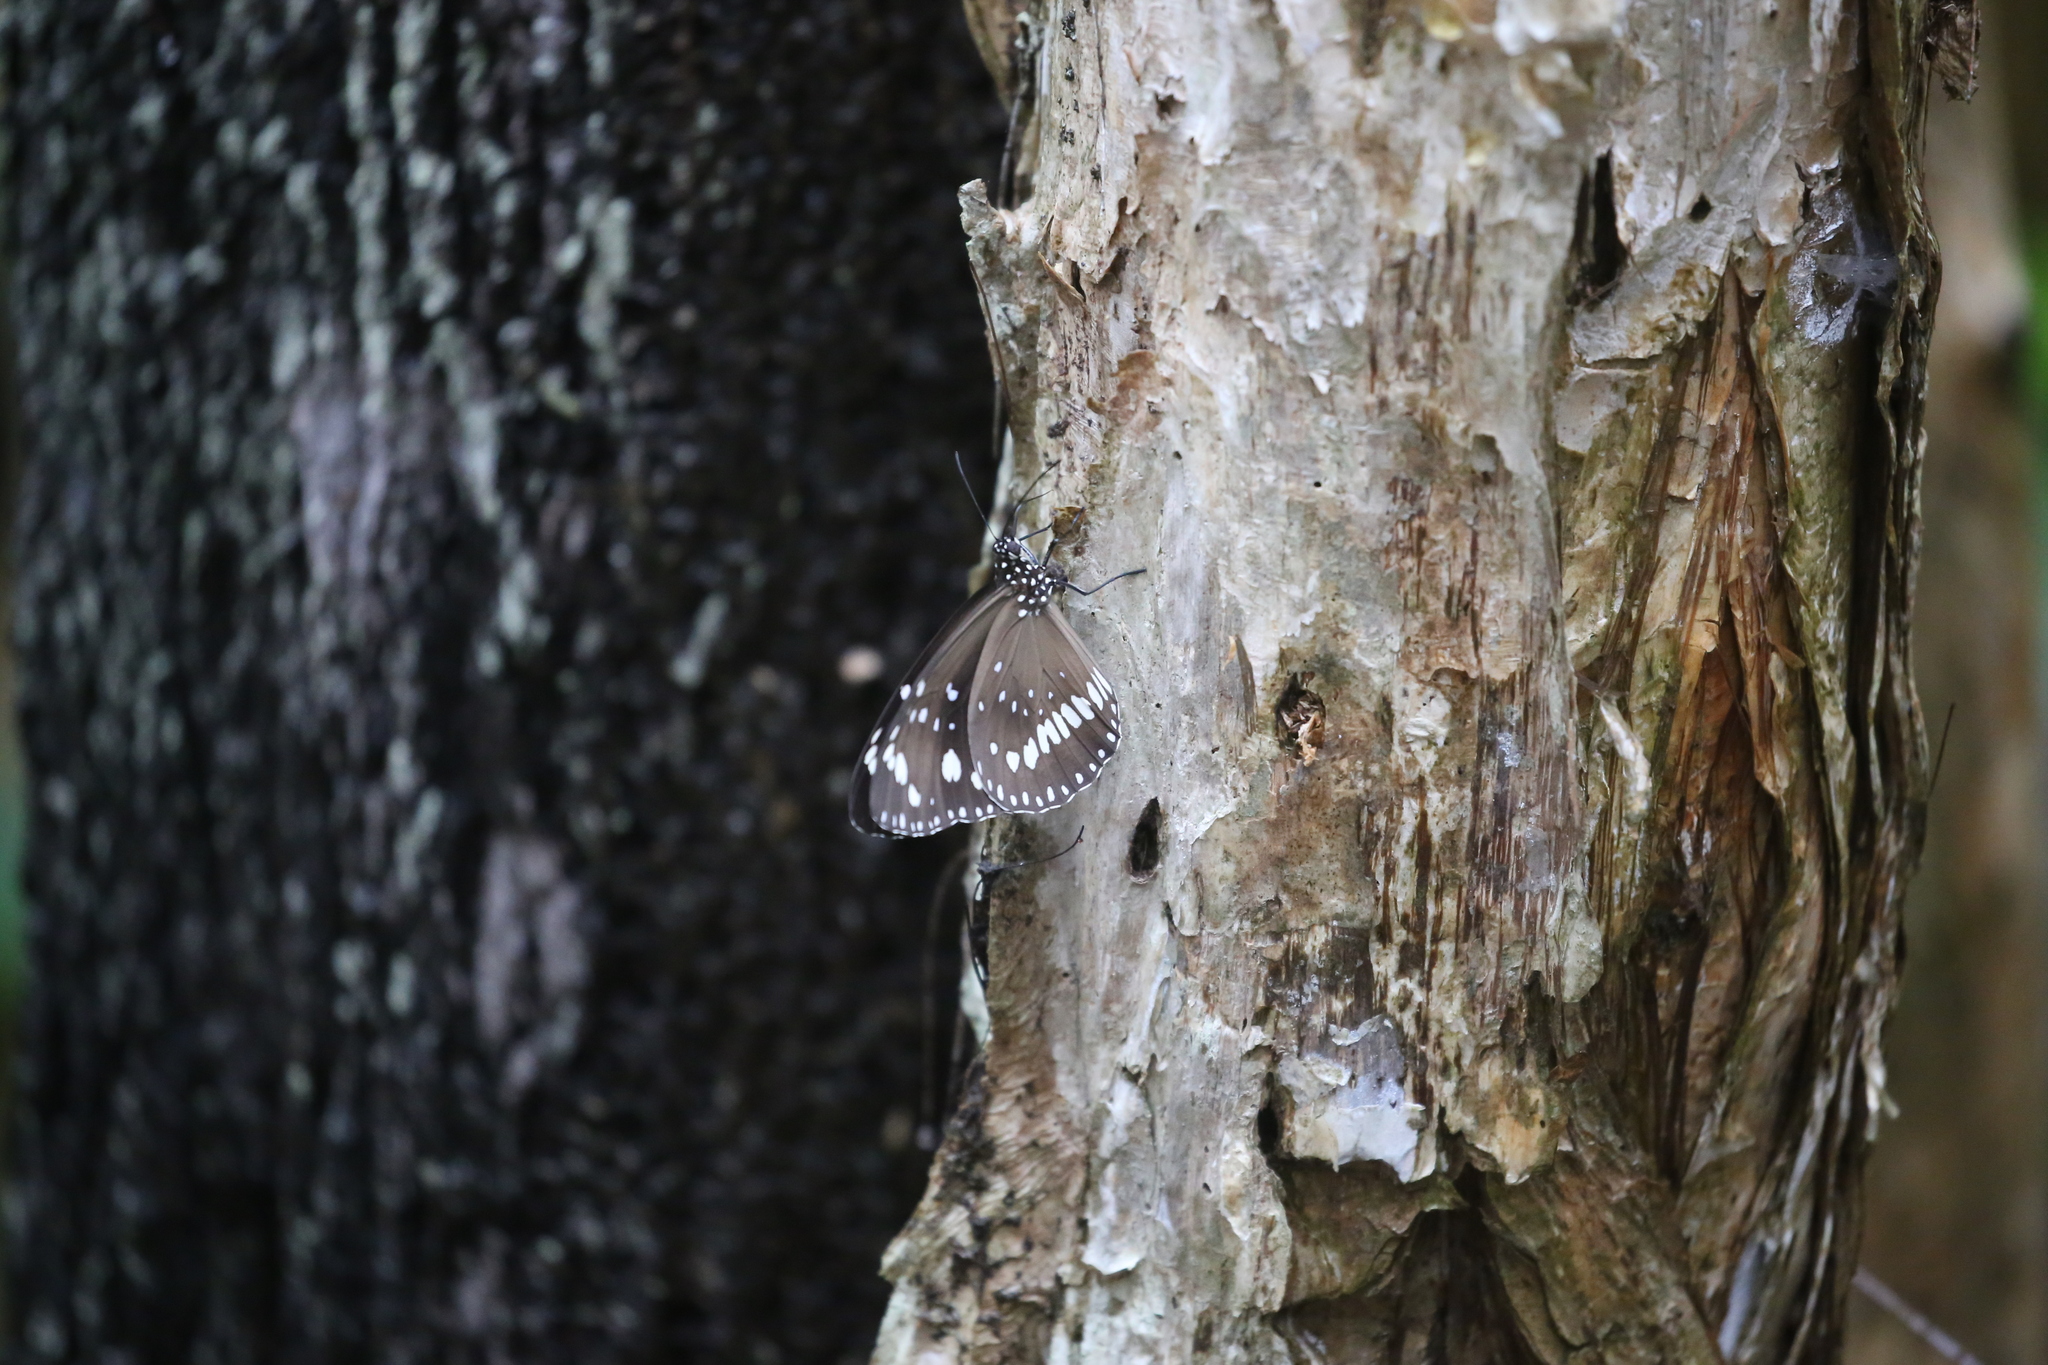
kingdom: Animalia
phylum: Arthropoda
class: Insecta
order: Lepidoptera
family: Nymphalidae
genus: Euploea
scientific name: Euploea core
